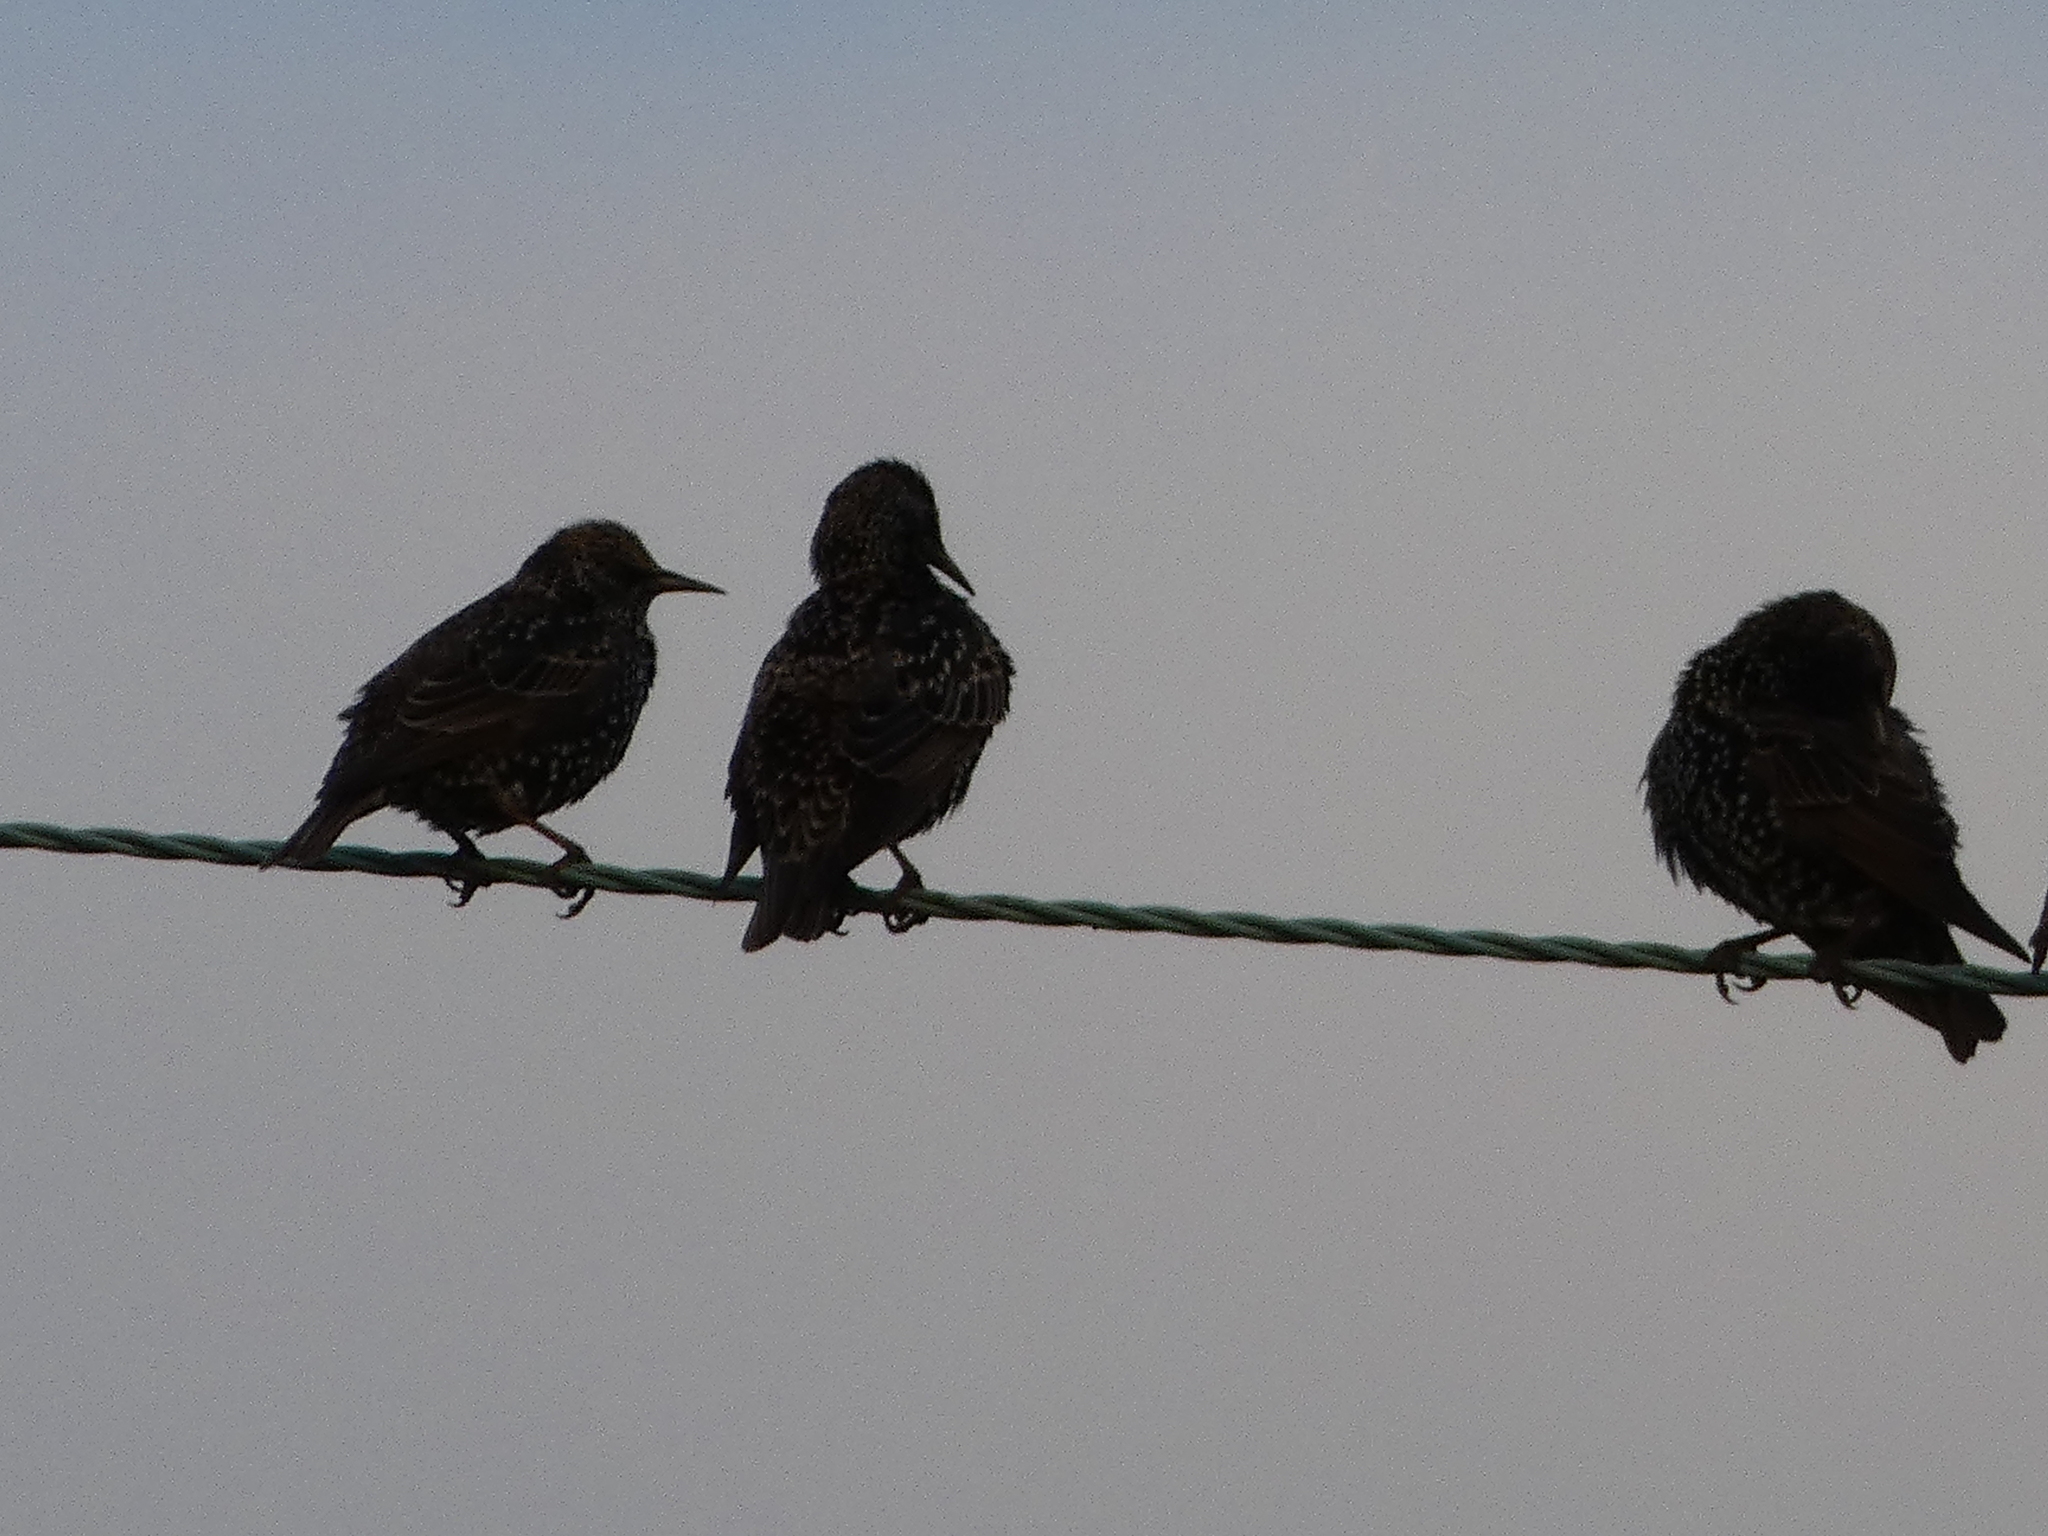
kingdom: Animalia
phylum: Chordata
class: Aves
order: Passeriformes
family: Sturnidae
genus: Sturnus
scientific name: Sturnus vulgaris
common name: Common starling
